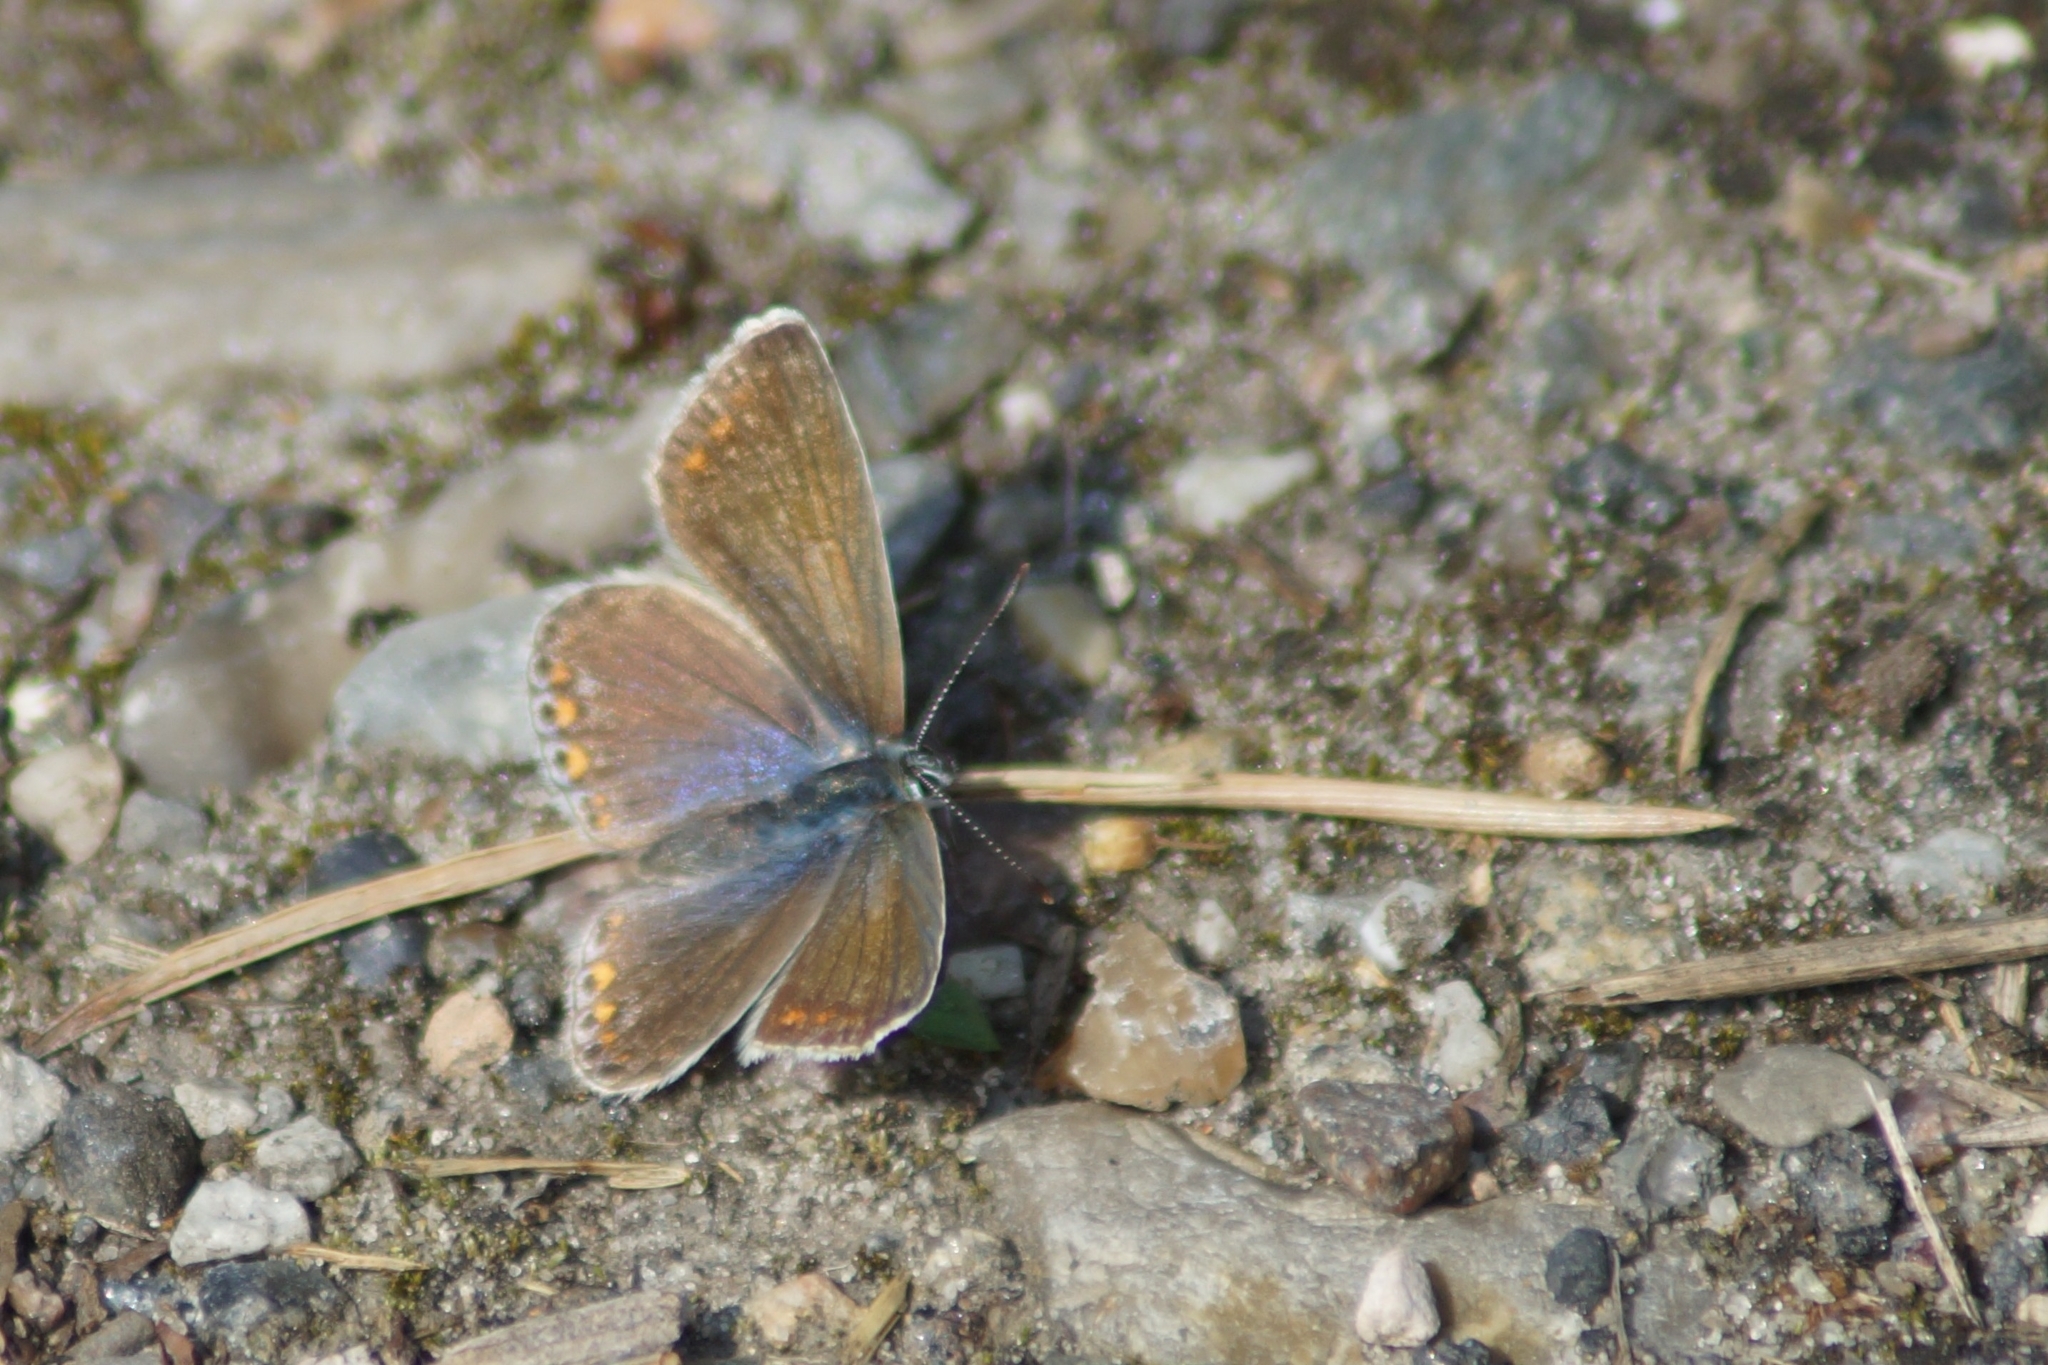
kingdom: Animalia
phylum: Arthropoda
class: Insecta
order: Lepidoptera
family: Lycaenidae
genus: Polyommatus
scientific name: Polyommatus icarus
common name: Common blue
